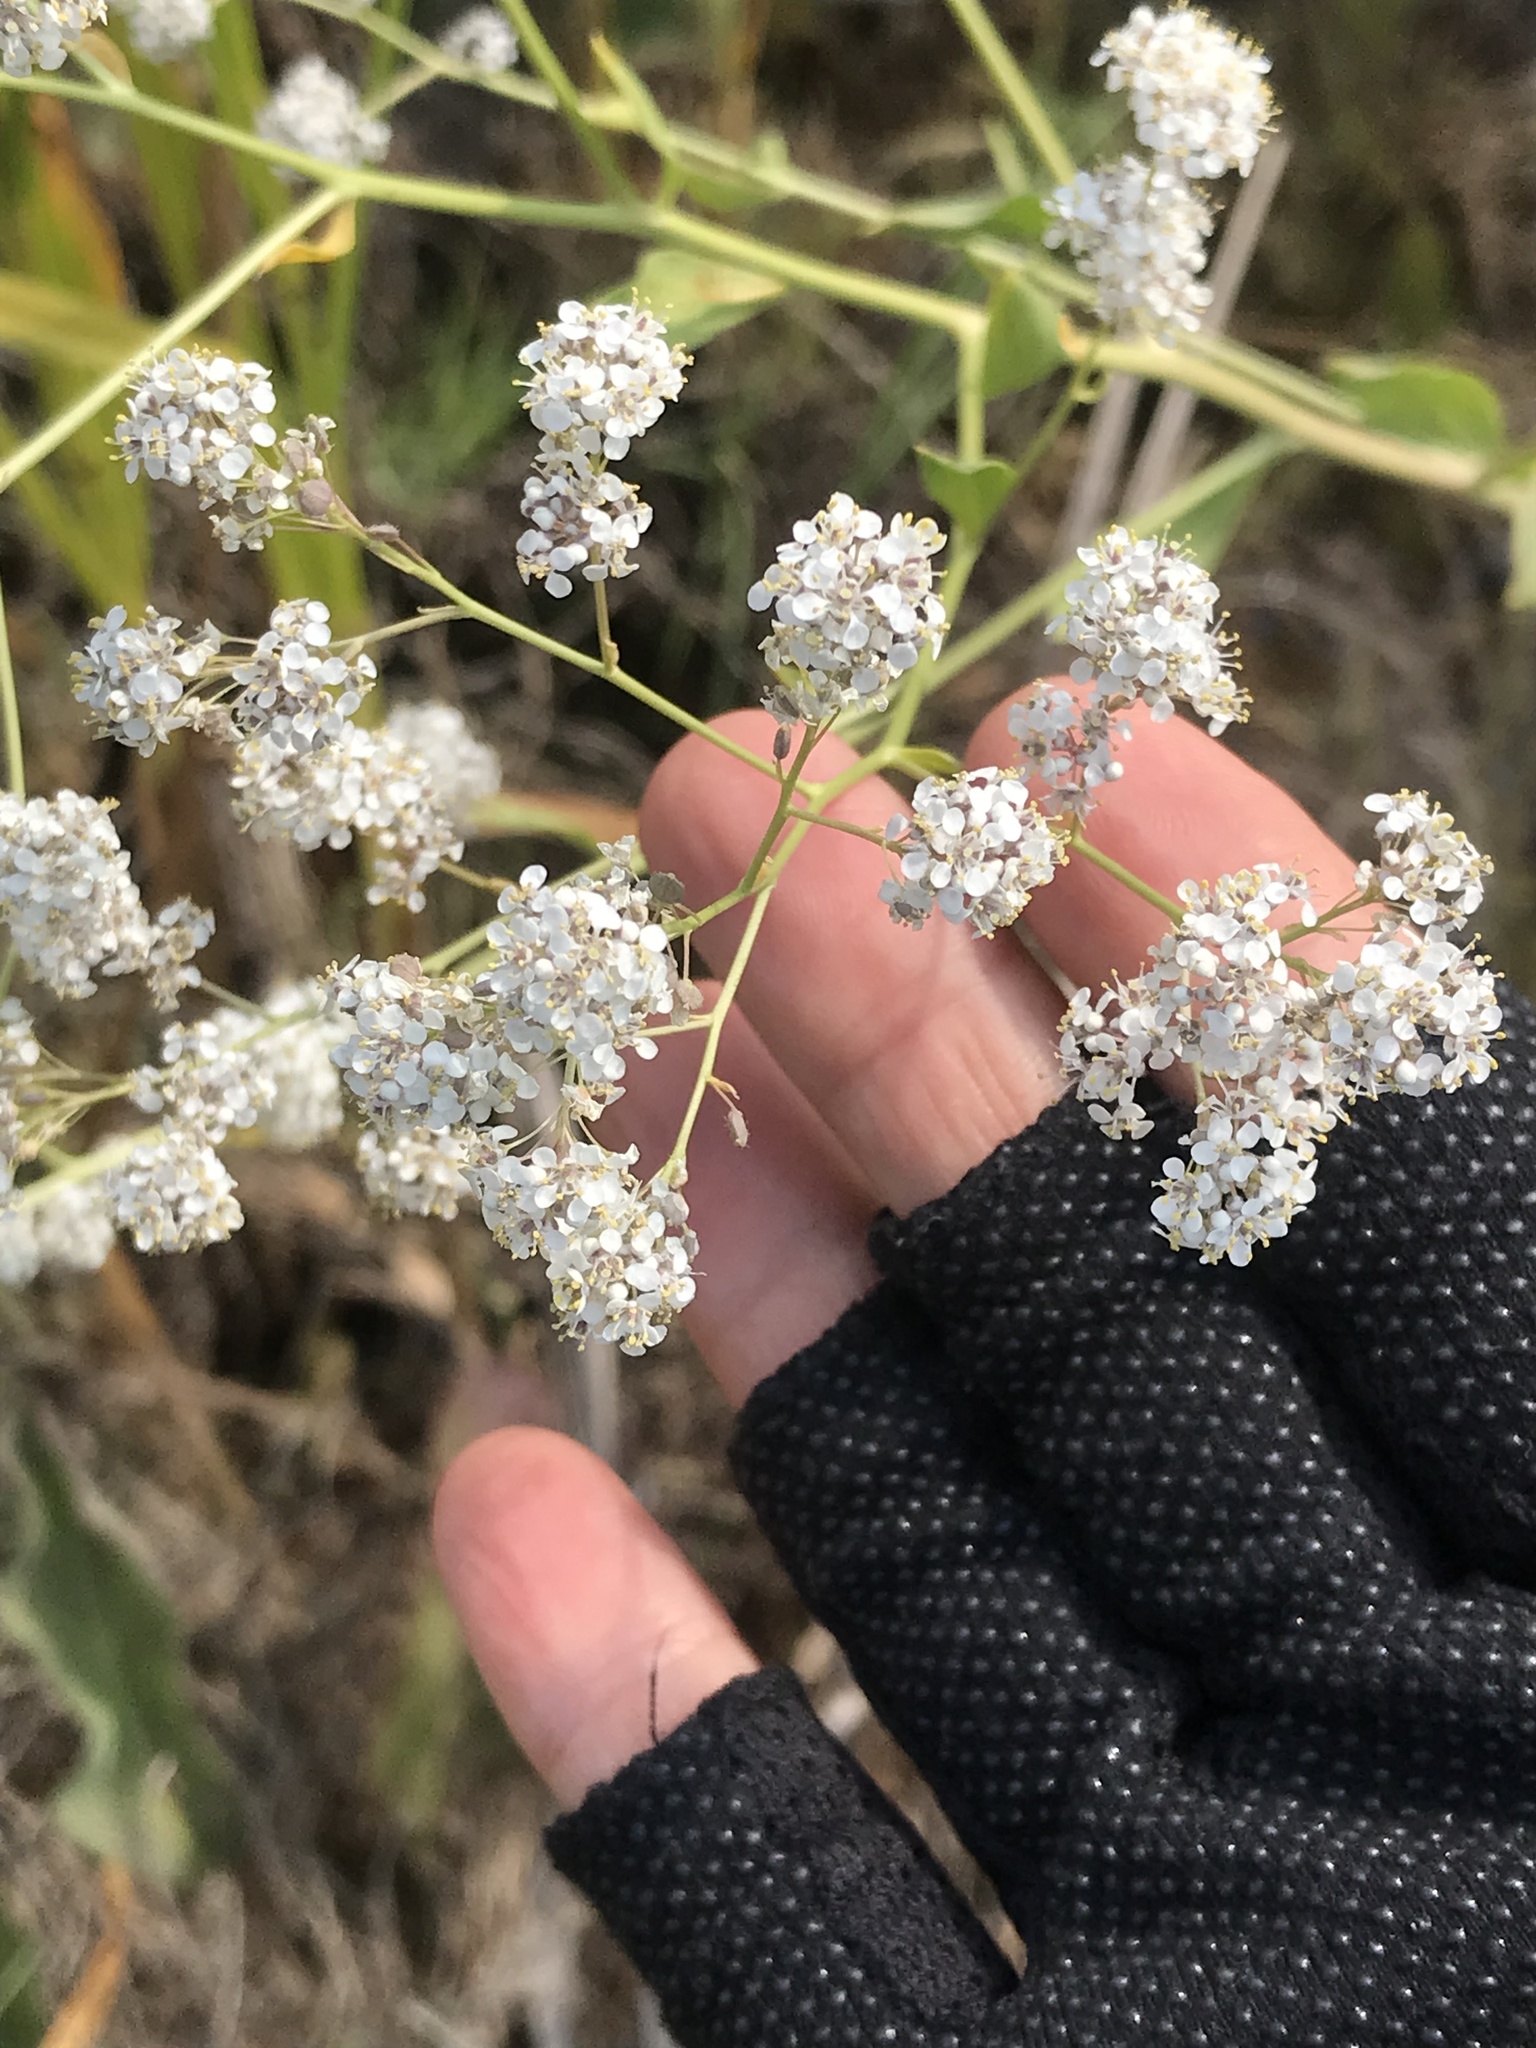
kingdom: Plantae
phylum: Tracheophyta
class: Magnoliopsida
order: Brassicales
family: Brassicaceae
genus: Lepidium
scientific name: Lepidium latifolium
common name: Dittander
